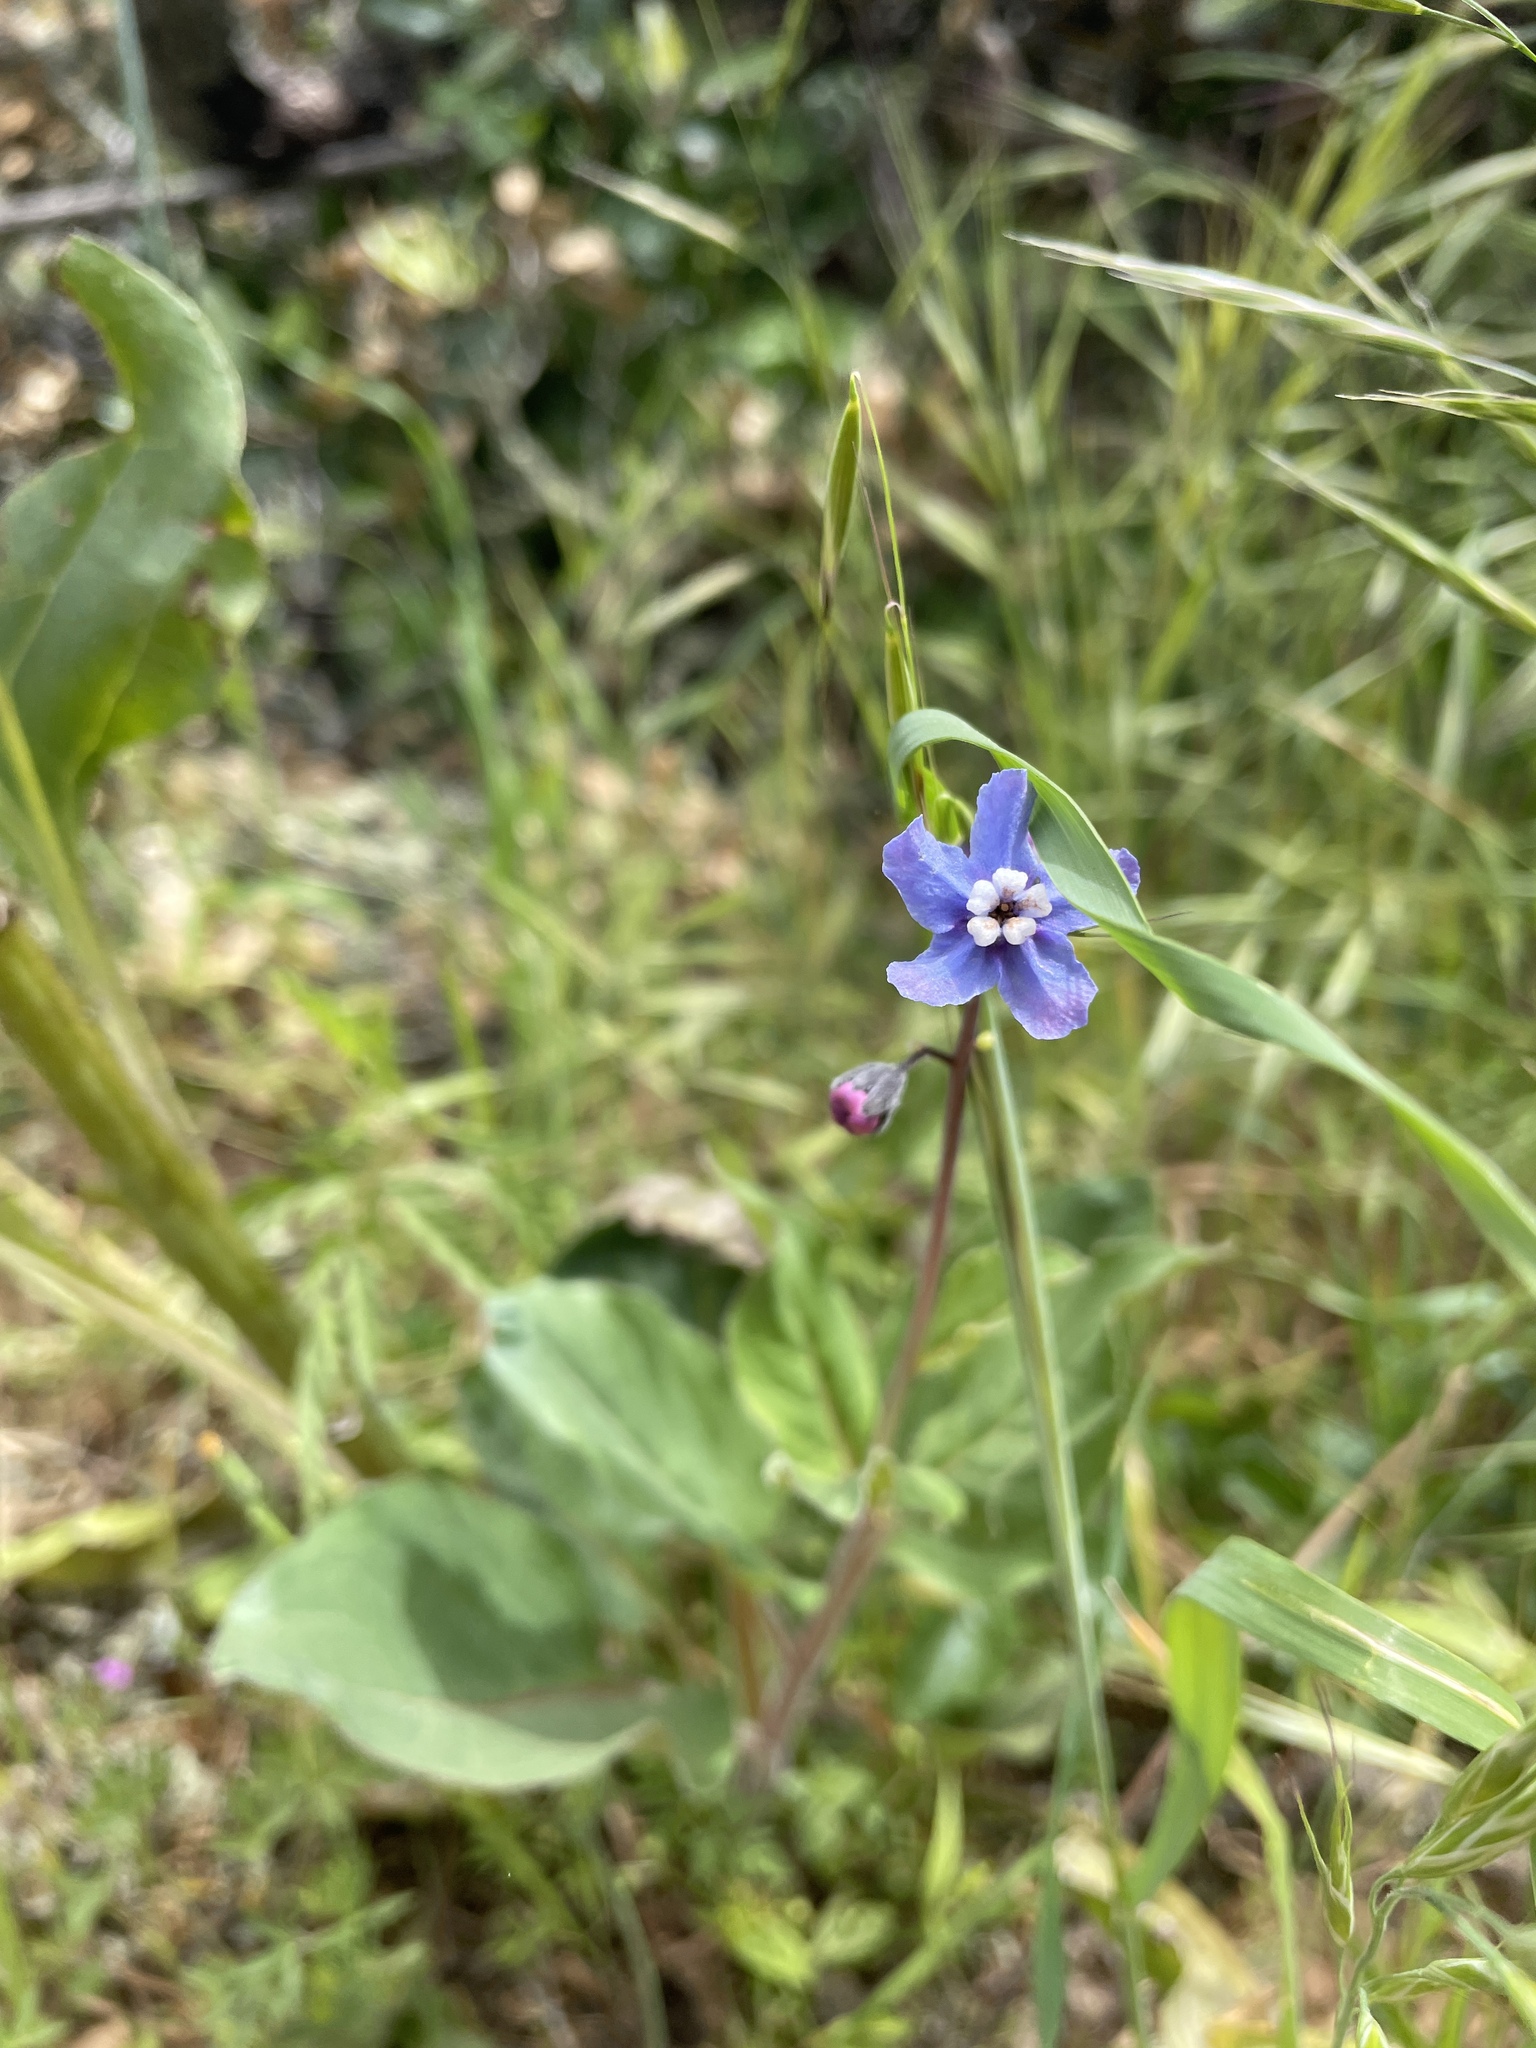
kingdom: Plantae
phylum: Tracheophyta
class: Magnoliopsida
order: Boraginales
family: Boraginaceae
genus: Adelinia
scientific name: Adelinia grande
